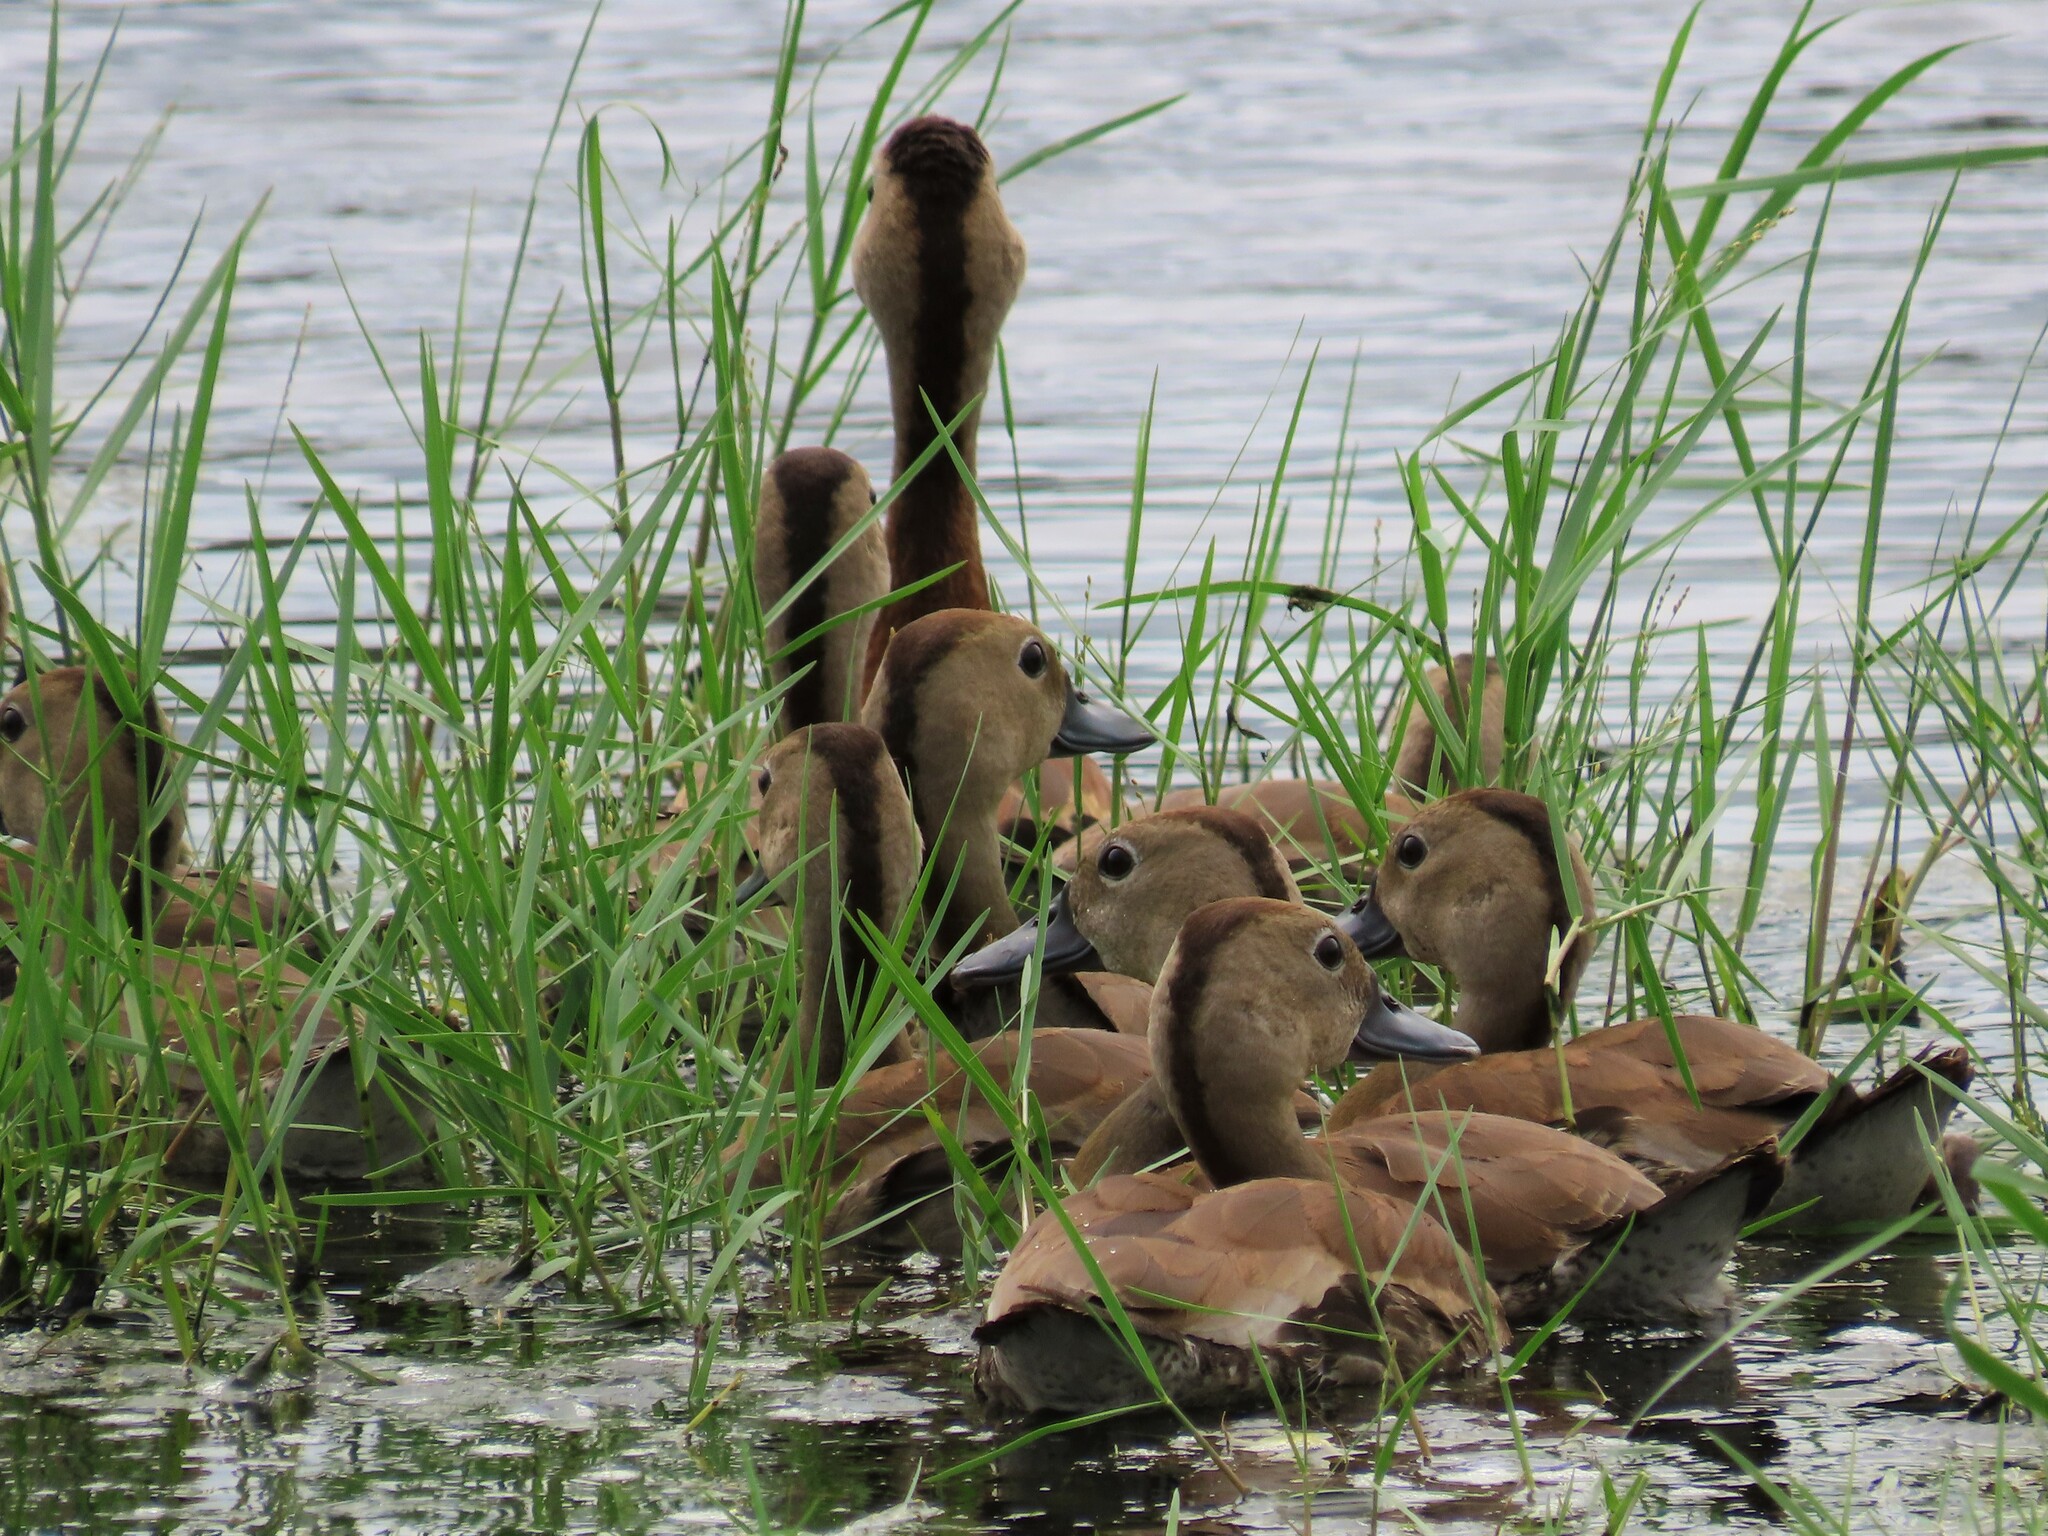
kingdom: Animalia
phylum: Chordata
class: Aves
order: Anseriformes
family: Anatidae
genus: Dendrocygna
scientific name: Dendrocygna autumnalis
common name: Black-bellied whistling duck
